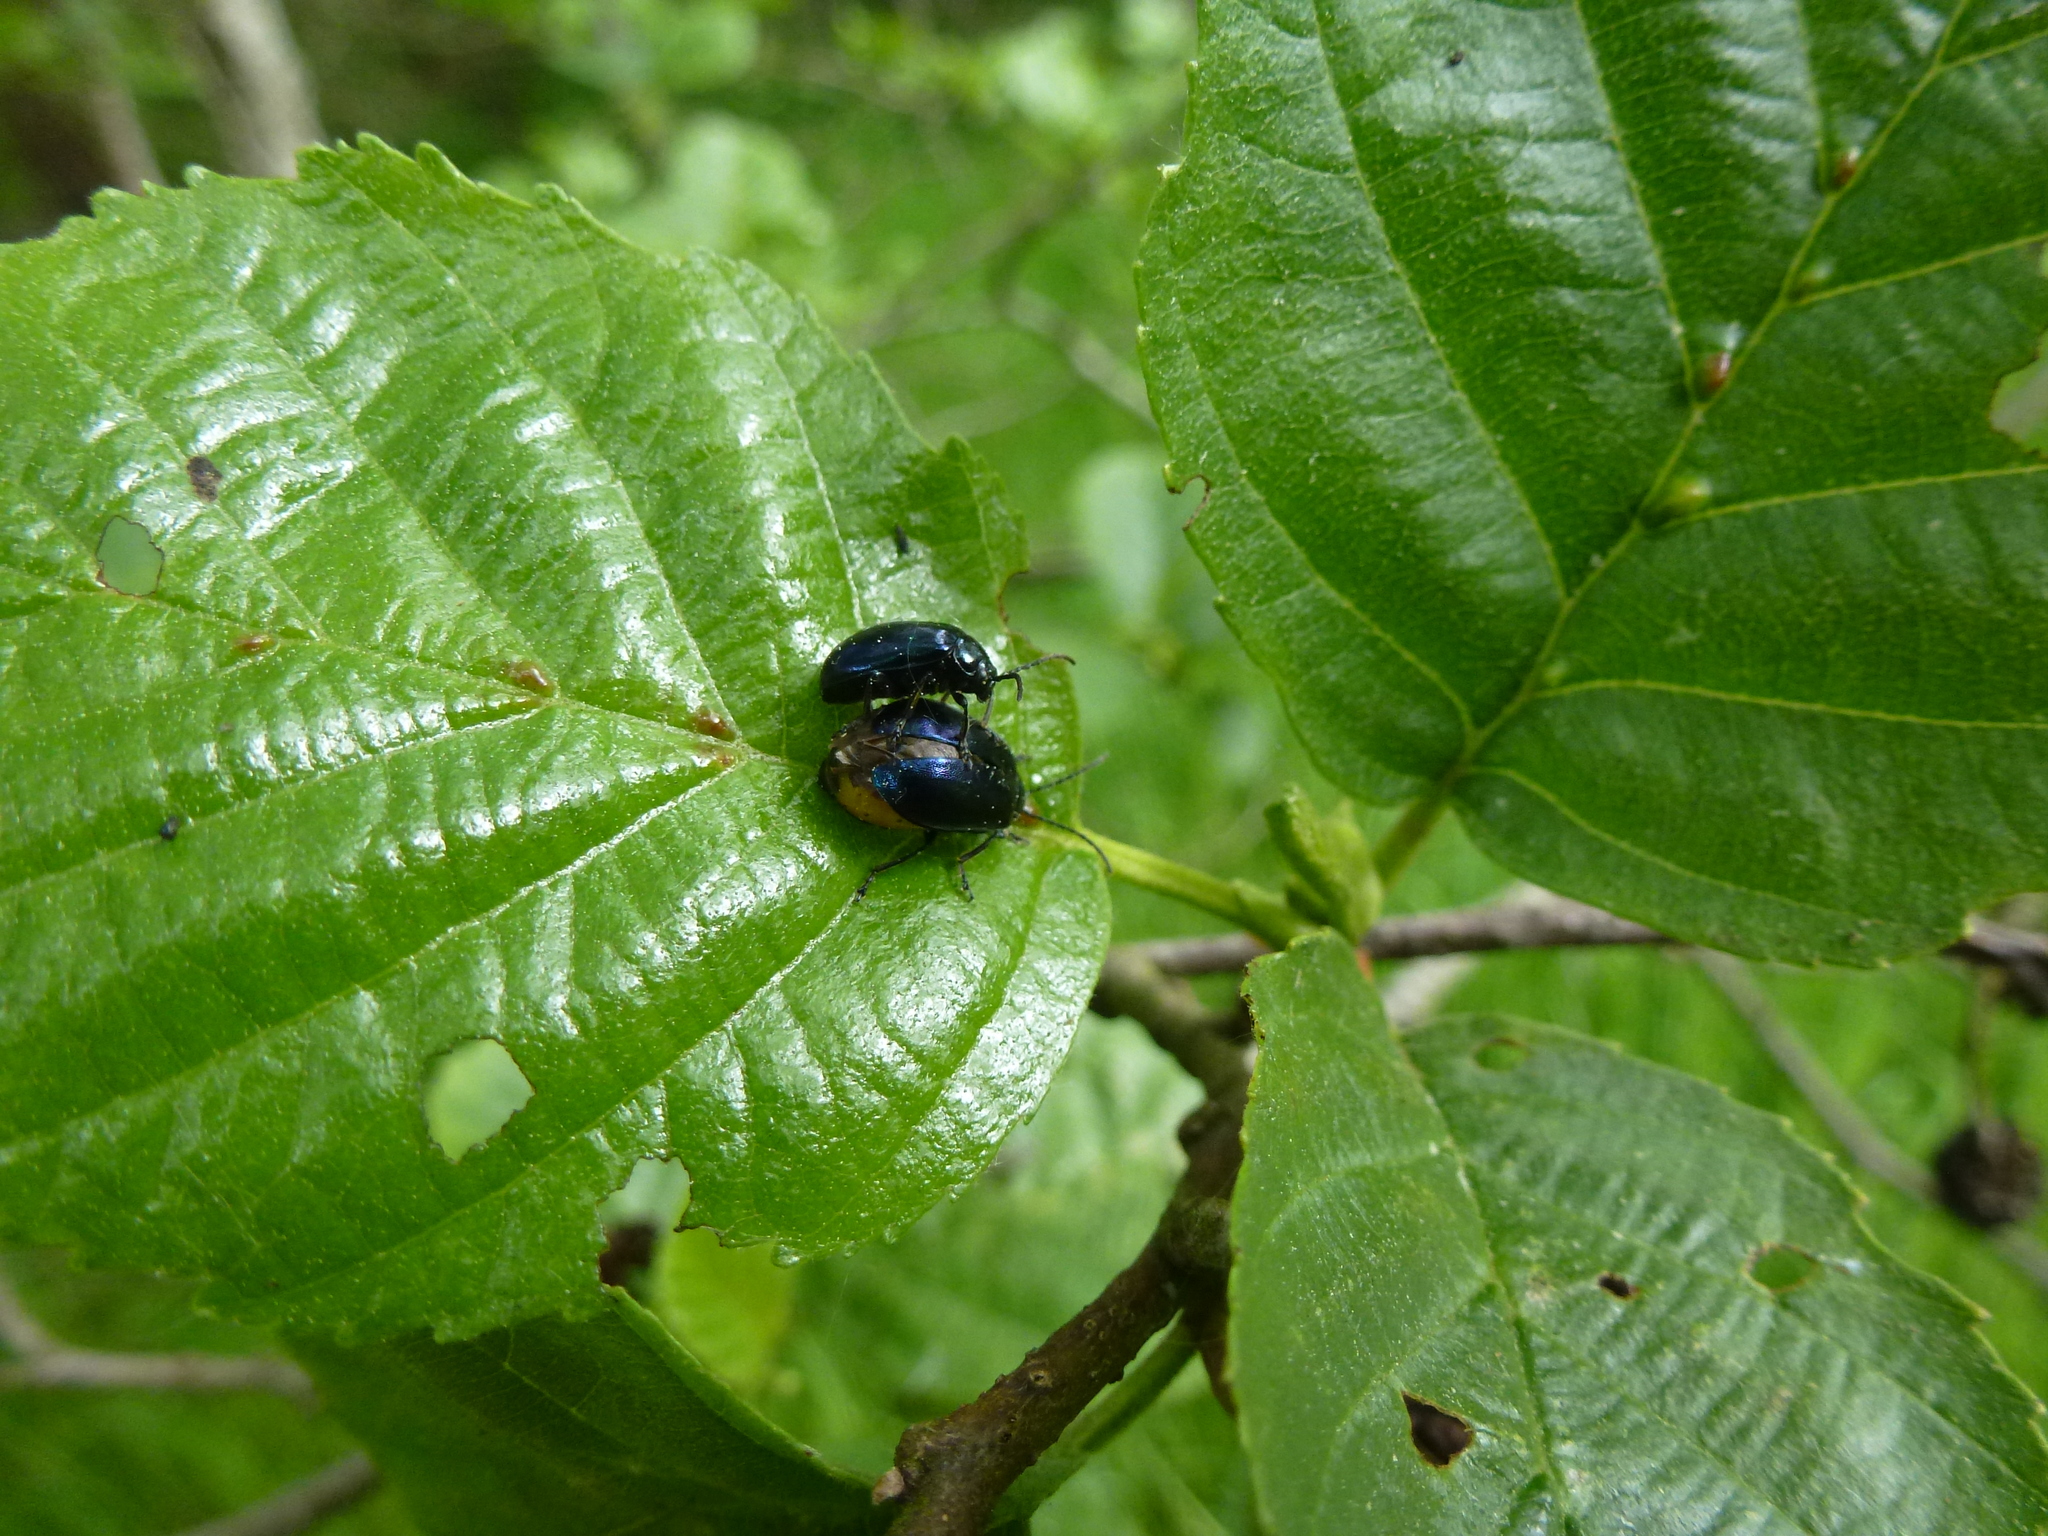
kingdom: Animalia
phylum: Arthropoda
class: Insecta
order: Coleoptera
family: Chrysomelidae
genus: Agelastica
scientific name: Agelastica alni
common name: Alder leaf beetle
